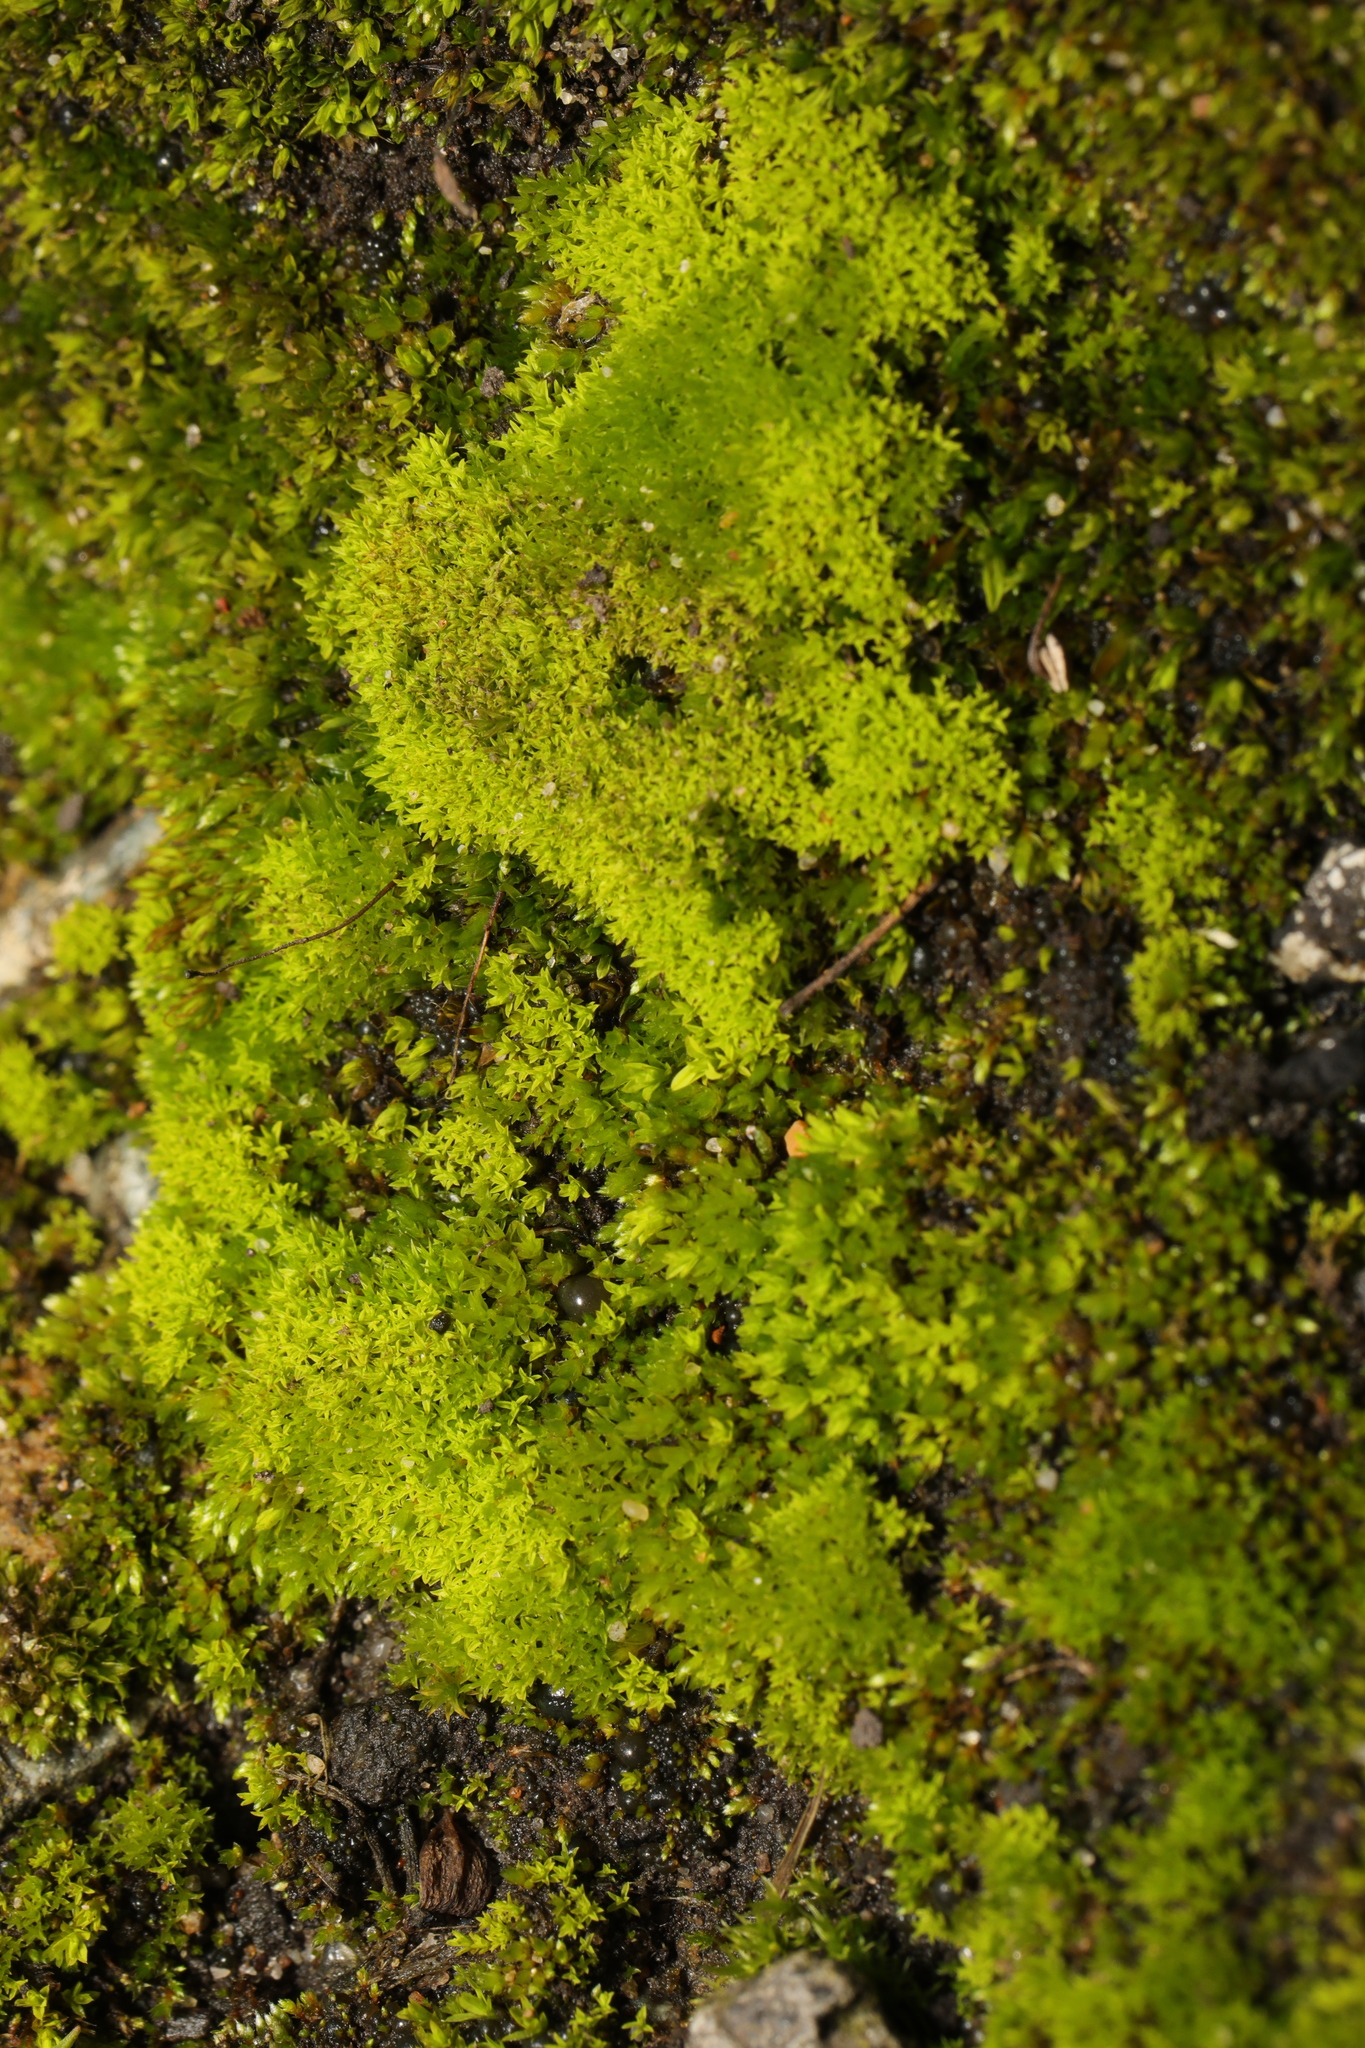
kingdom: Plantae
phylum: Bryophyta
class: Bryopsida
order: Pottiales
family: Pottiaceae
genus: Barbula
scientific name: Barbula unguiculata
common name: Prickly beard moss
